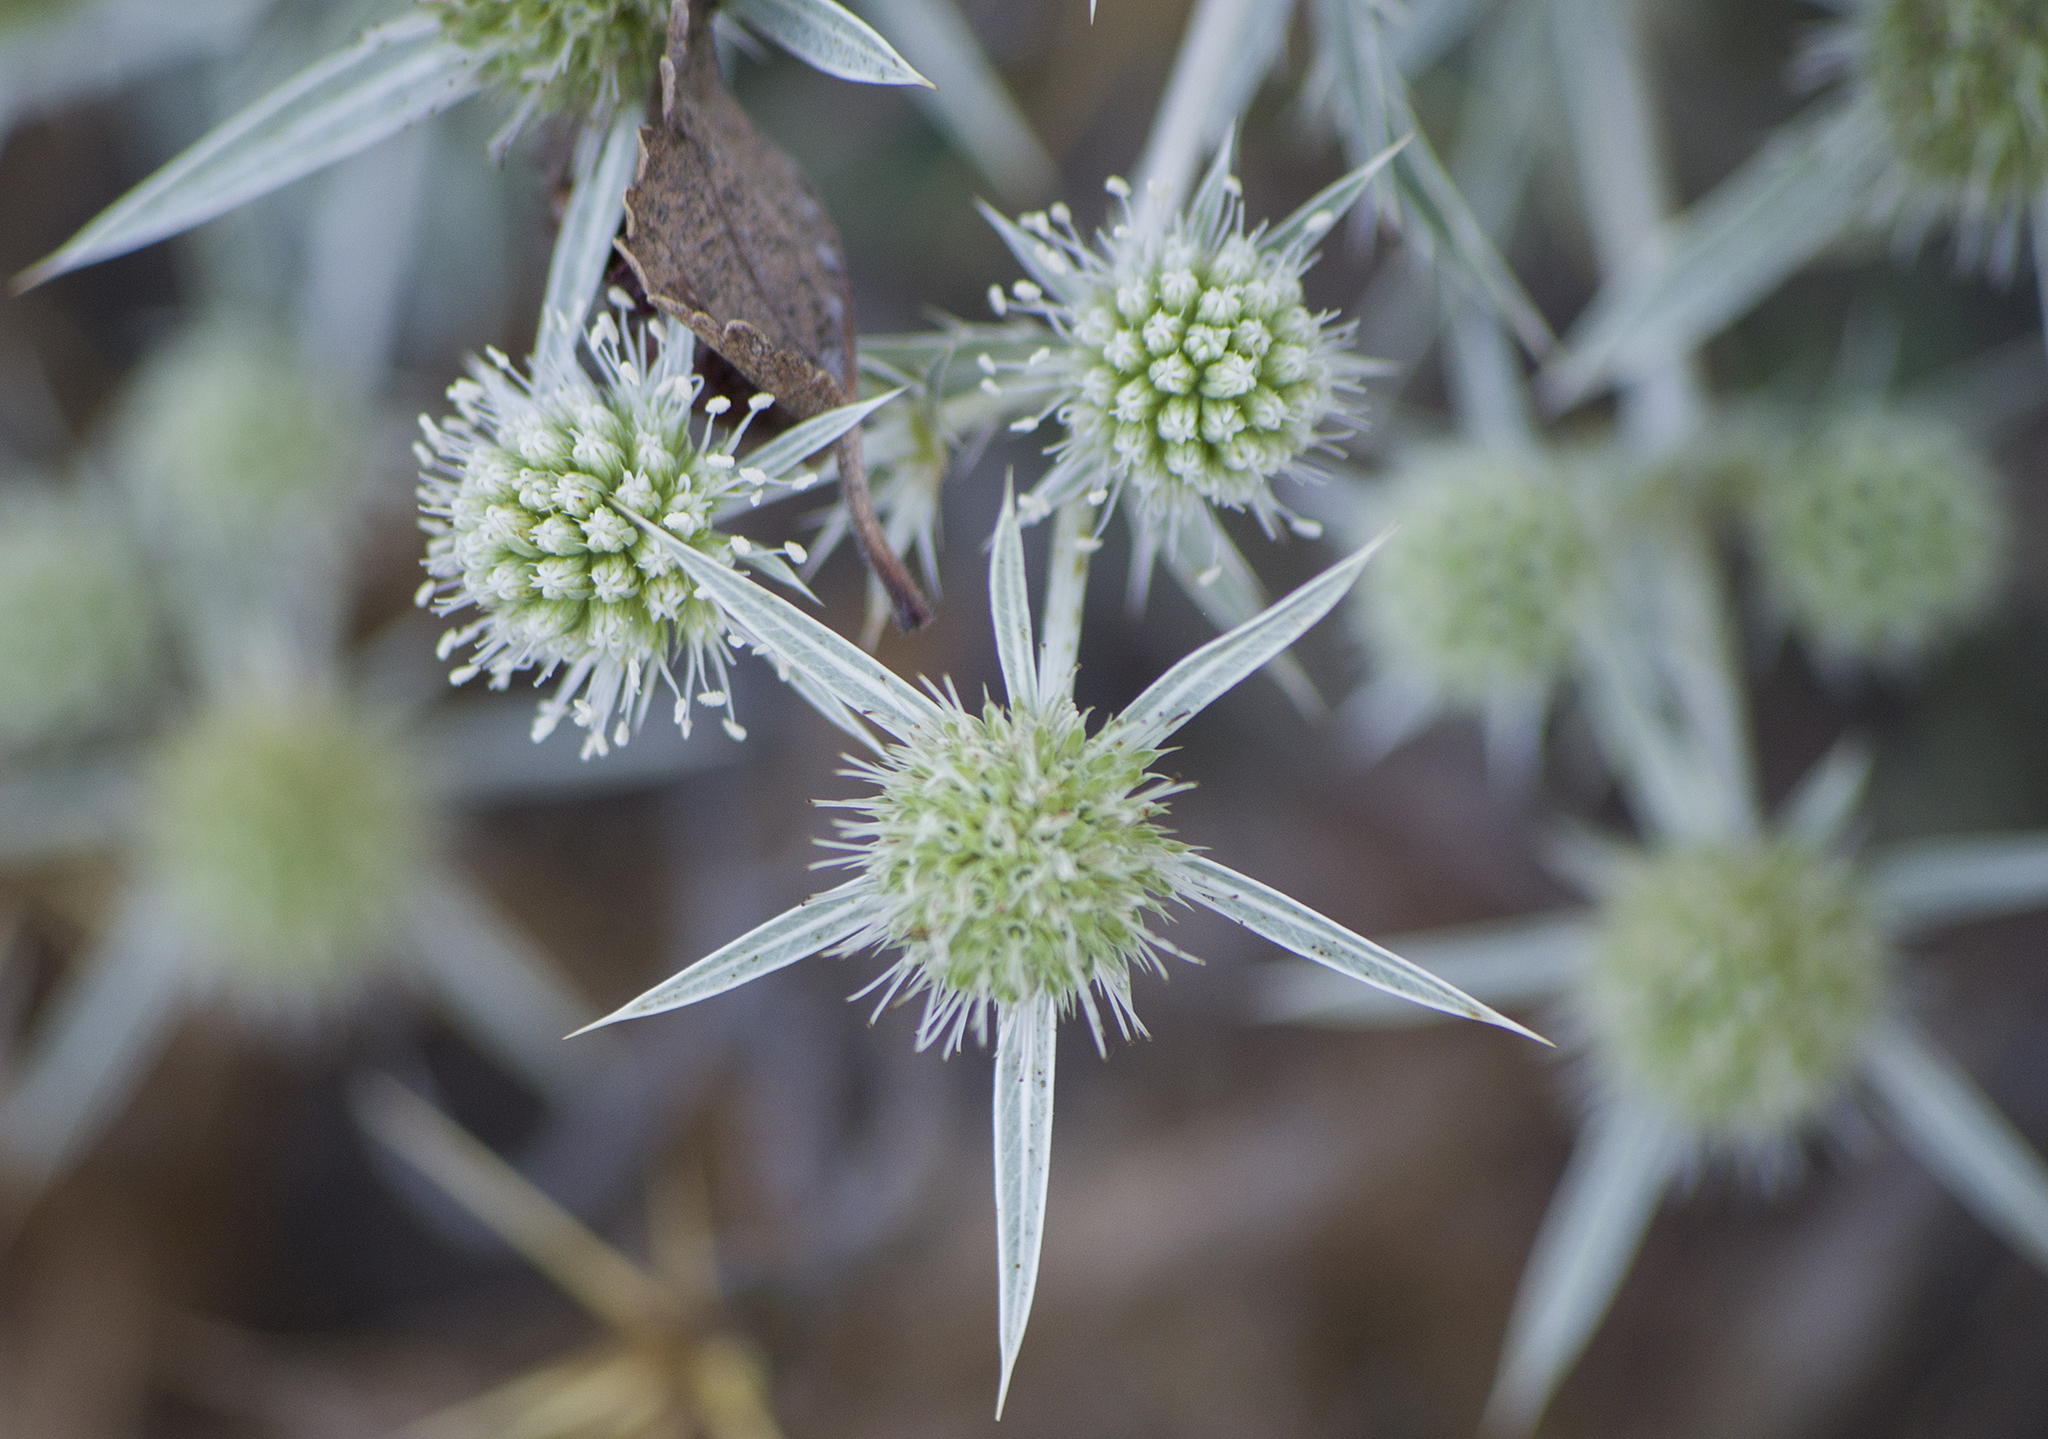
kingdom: Plantae
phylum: Tracheophyta
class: Magnoliopsida
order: Apiales
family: Apiaceae
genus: Eryngium
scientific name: Eryngium campestre
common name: Field eryngo
